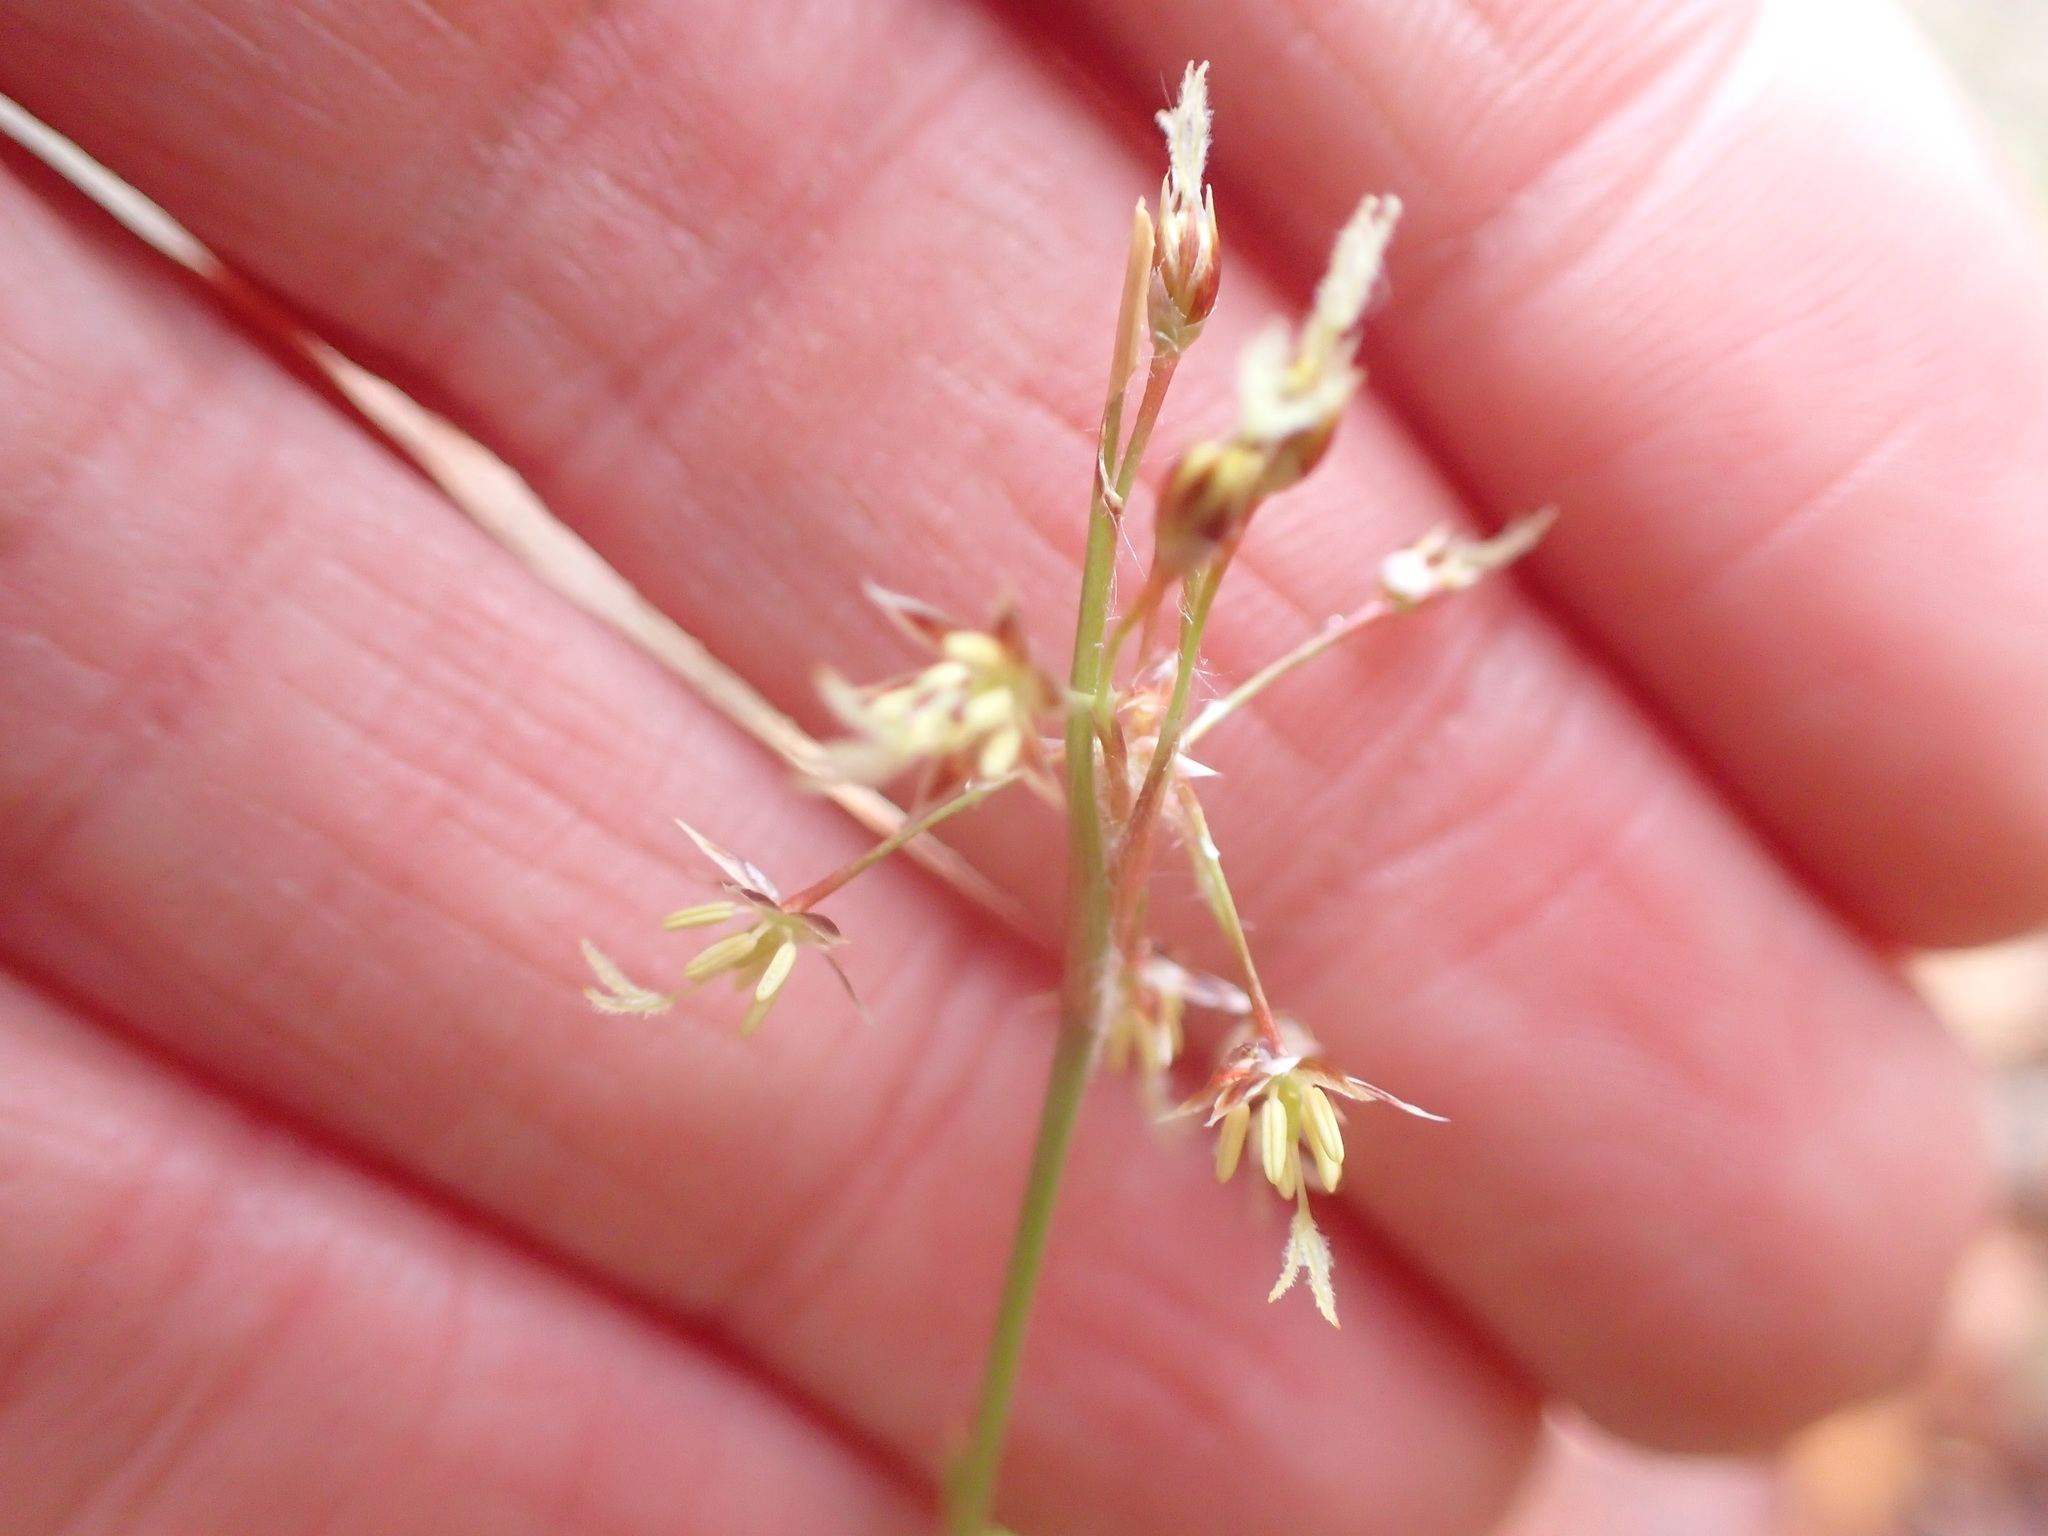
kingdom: Plantae
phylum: Tracheophyta
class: Liliopsida
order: Poales
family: Juncaceae
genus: Luzula
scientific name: Luzula acuminata
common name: Hairy woodrush
